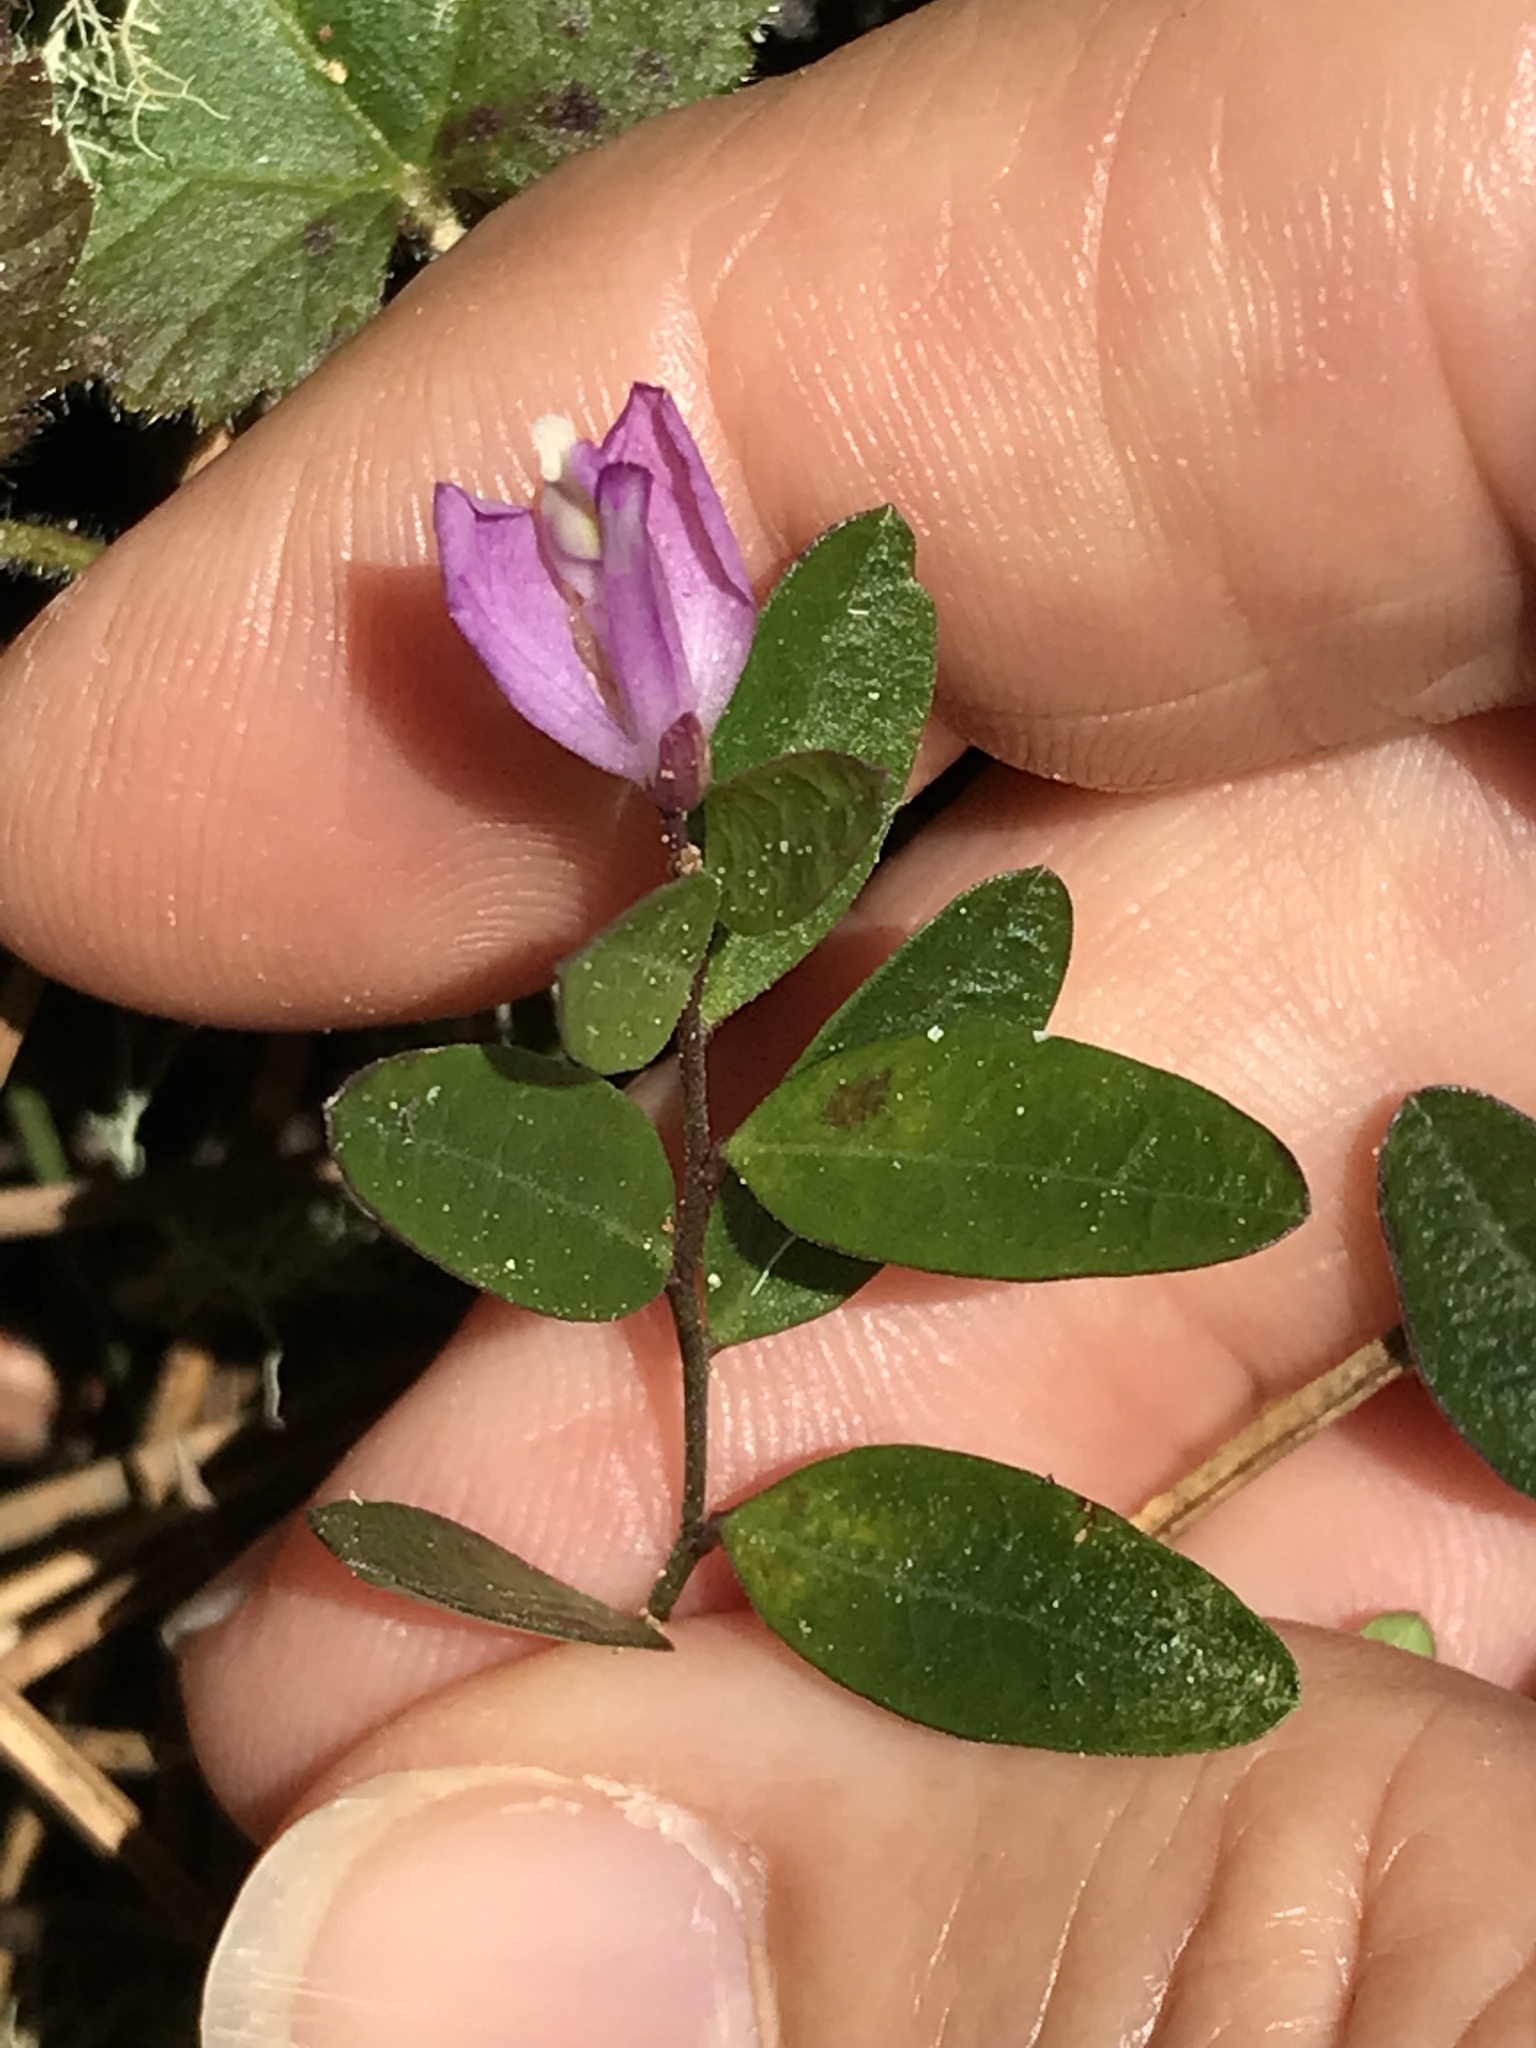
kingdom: Plantae
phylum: Tracheophyta
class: Magnoliopsida
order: Fabales
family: Polygalaceae
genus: Rhinotropis
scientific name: Rhinotropis californica
